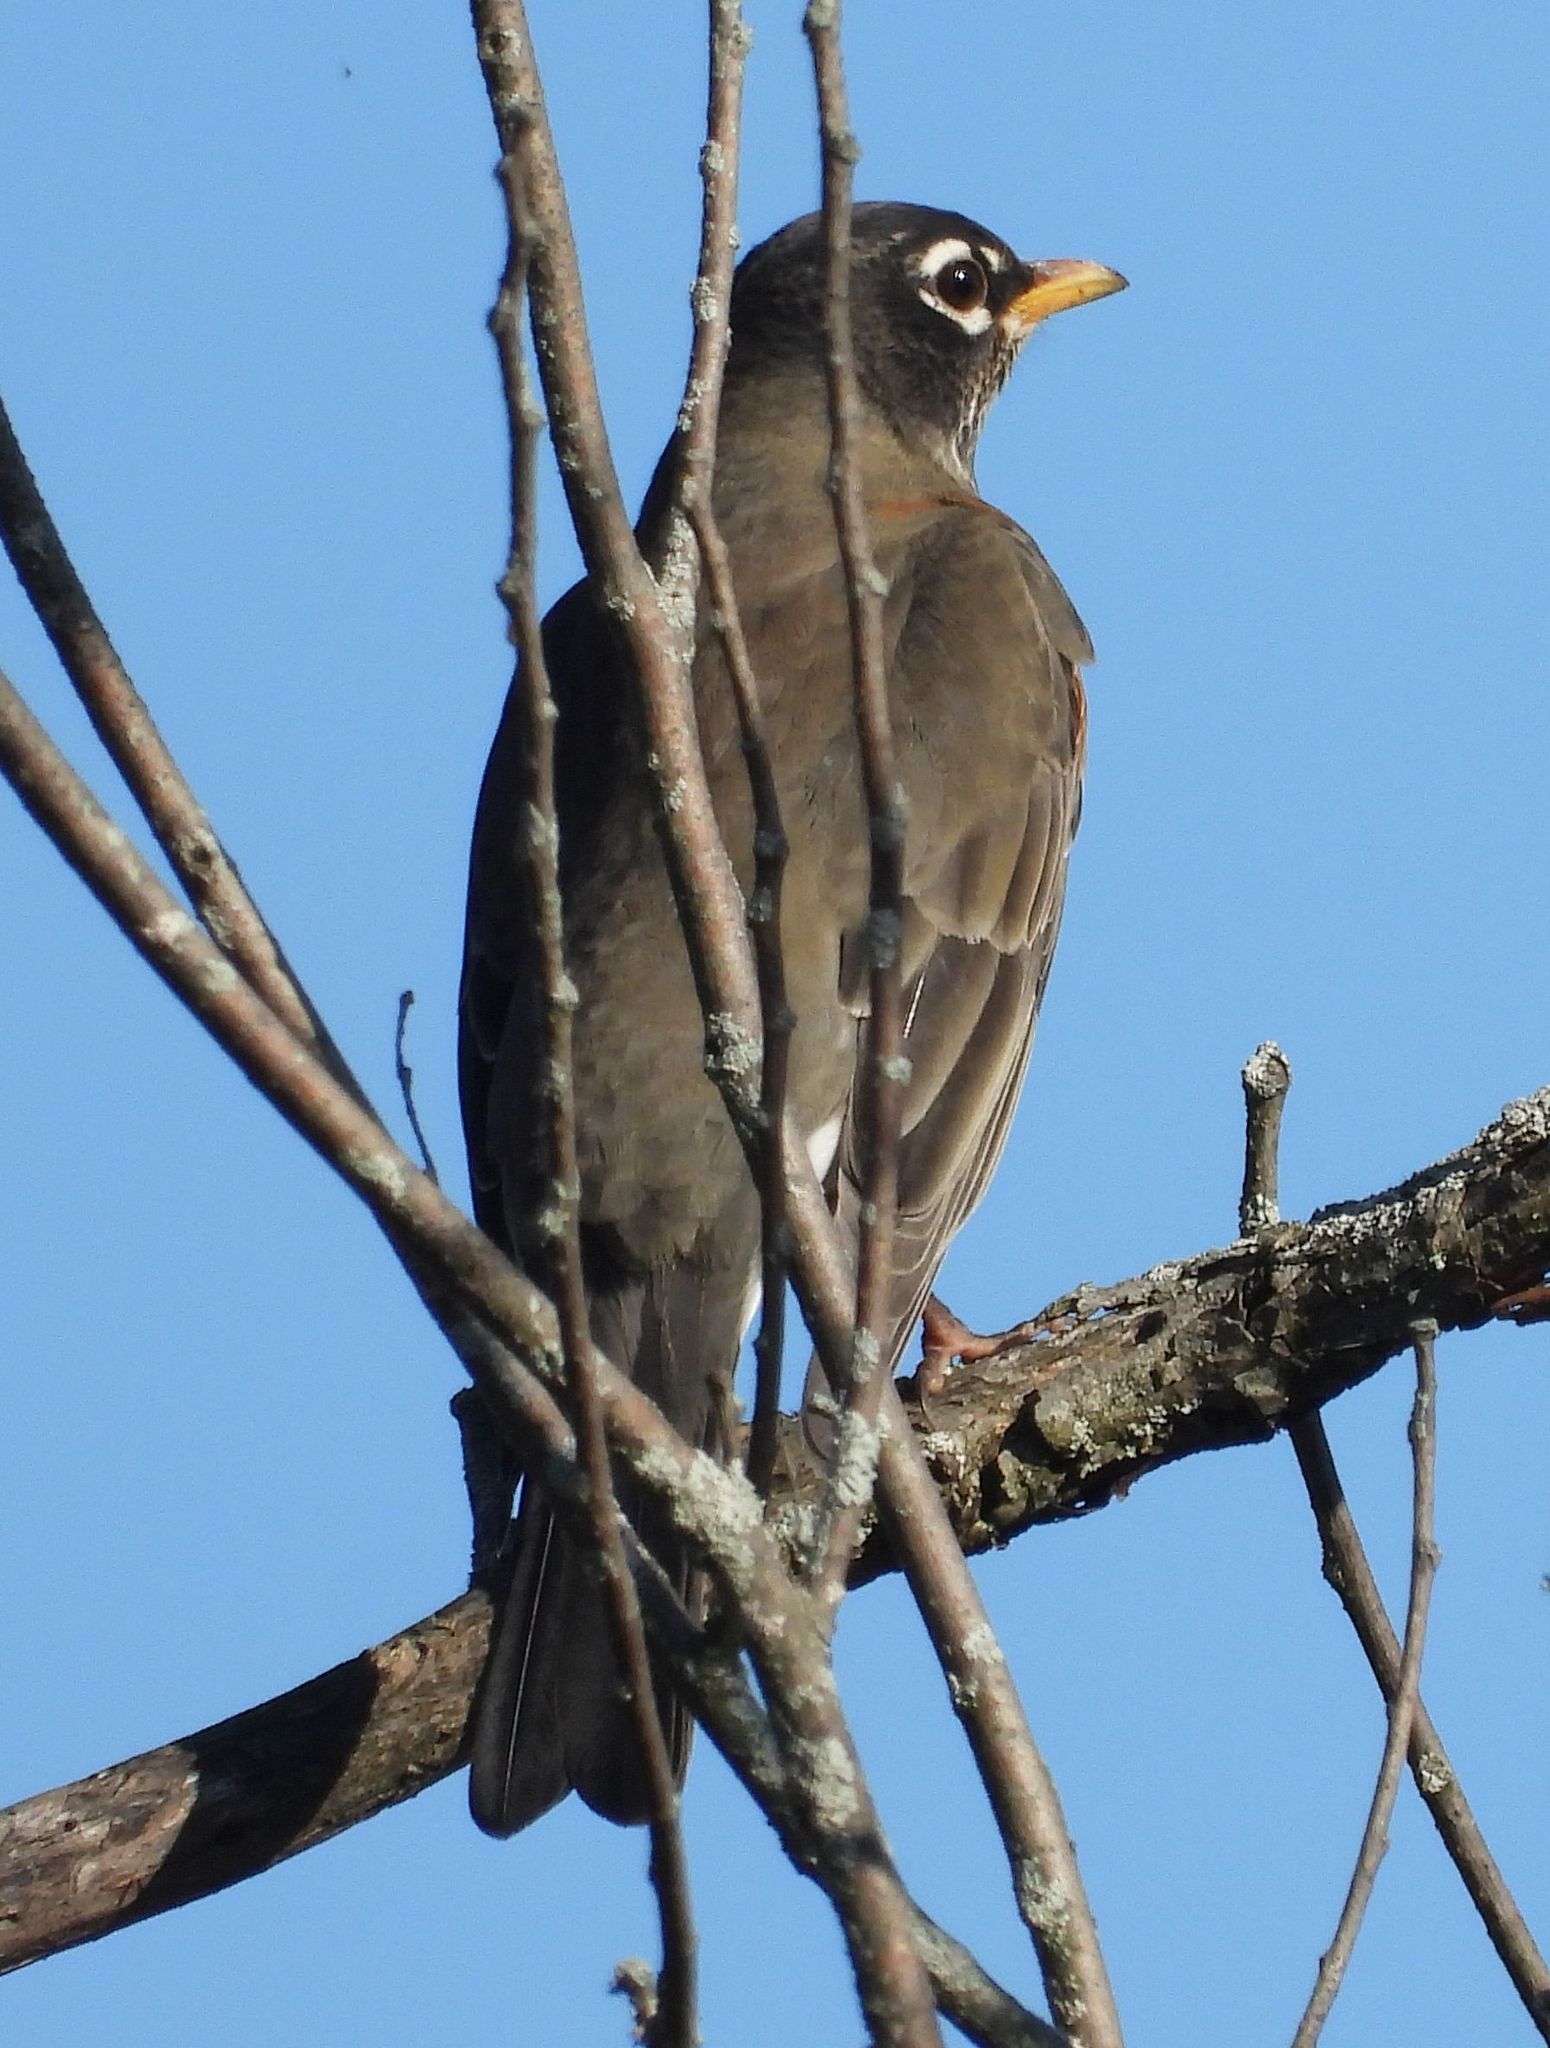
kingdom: Animalia
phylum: Chordata
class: Aves
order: Passeriformes
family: Turdidae
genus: Turdus
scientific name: Turdus migratorius
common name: American robin
